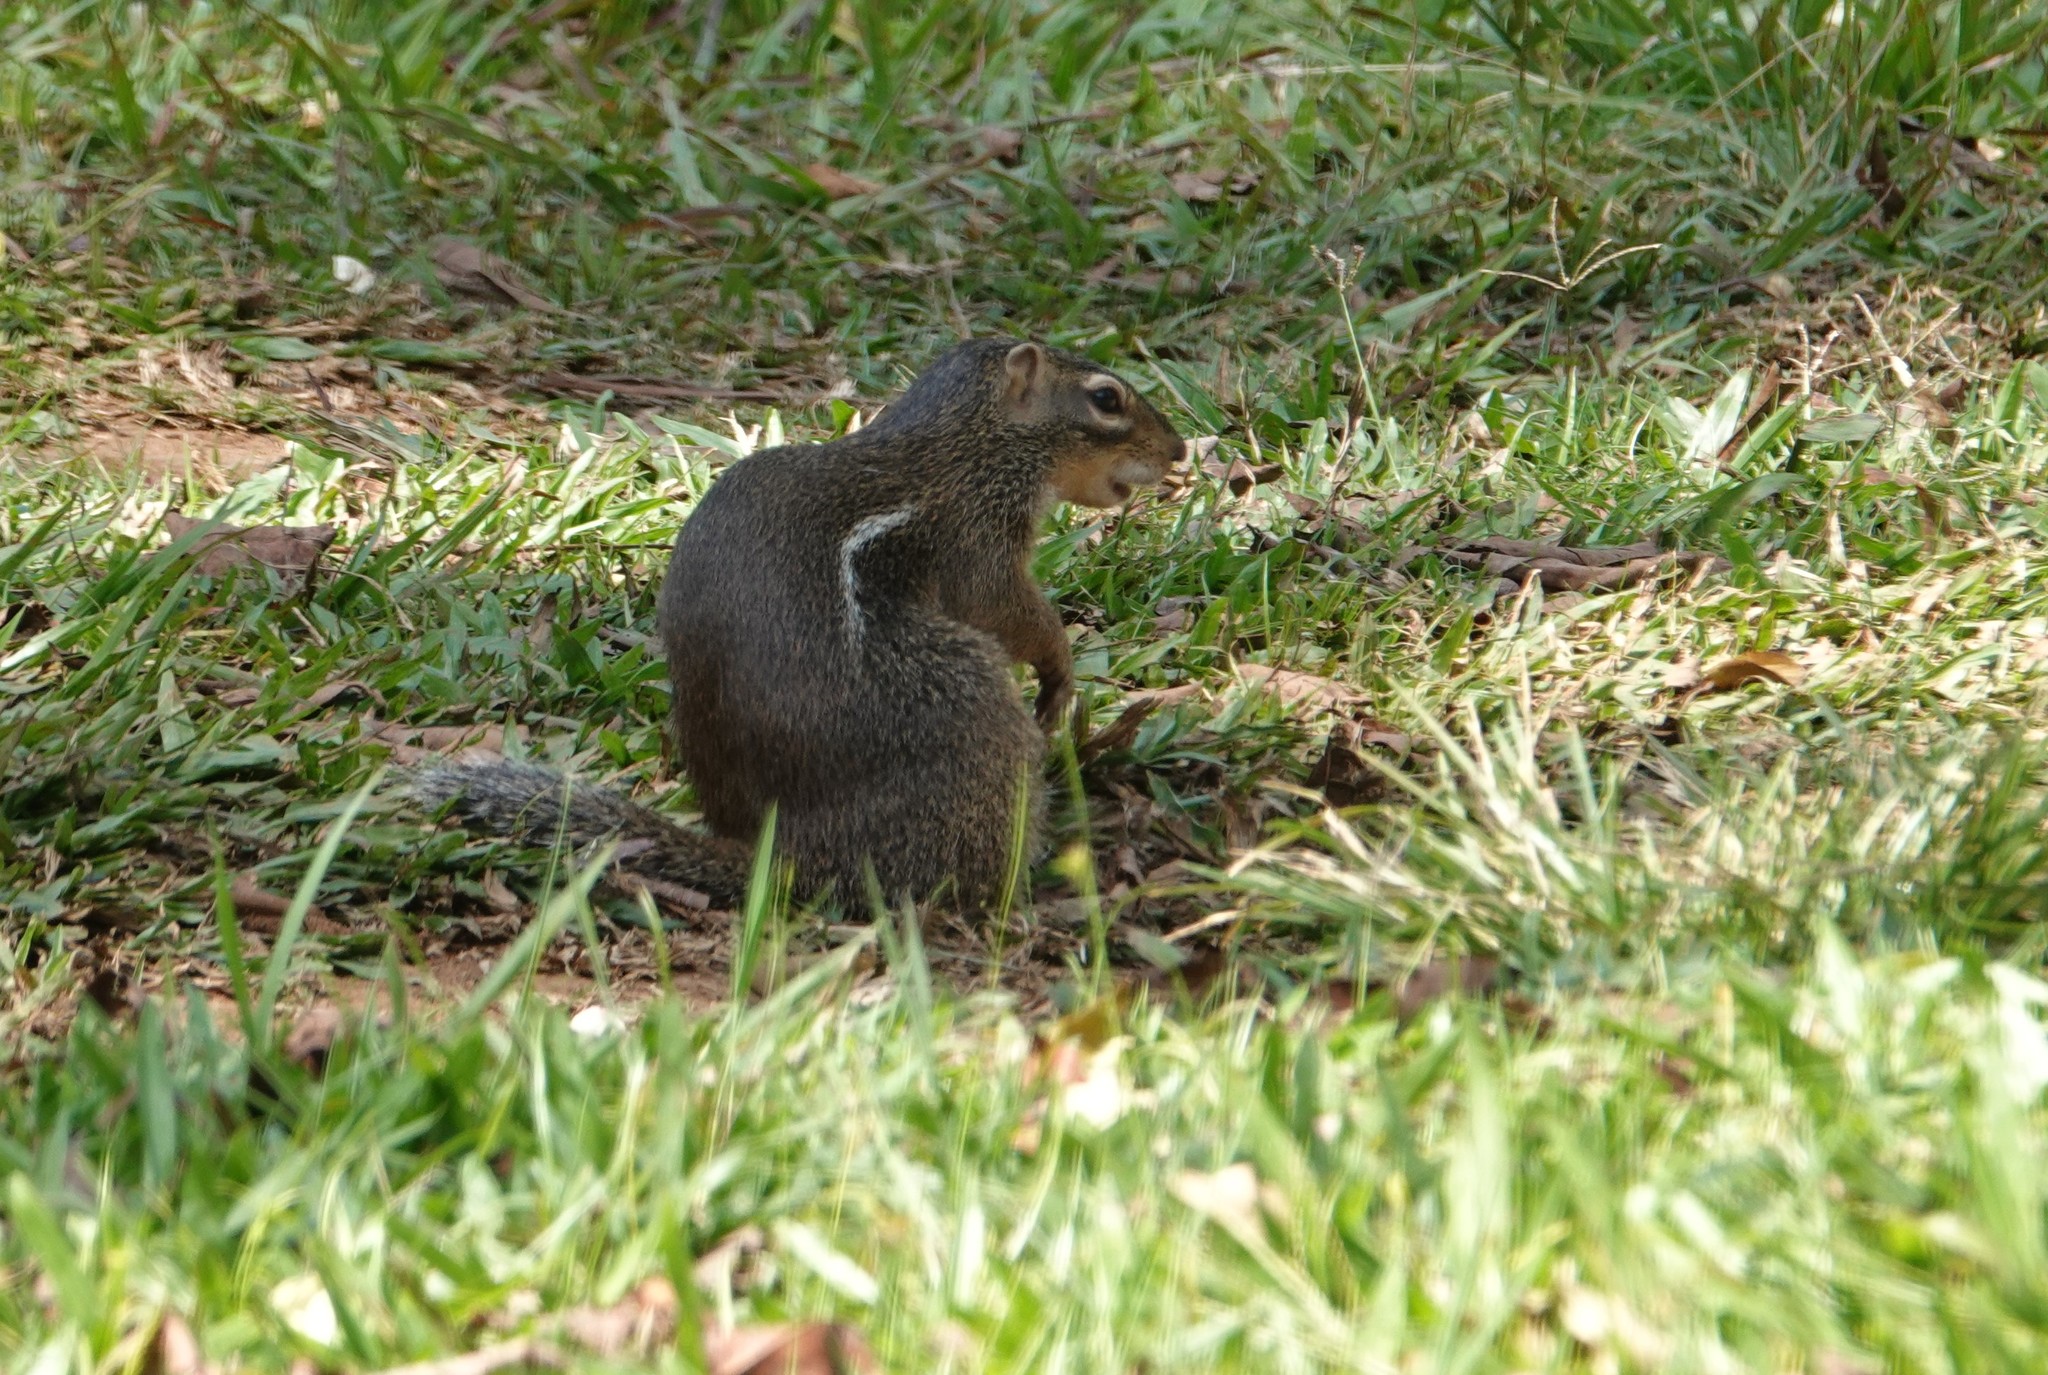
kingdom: Animalia
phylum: Chordata
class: Mammalia
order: Rodentia
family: Sciuridae
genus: Xerus
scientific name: Xerus erythropus
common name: Striped ground squirrel
